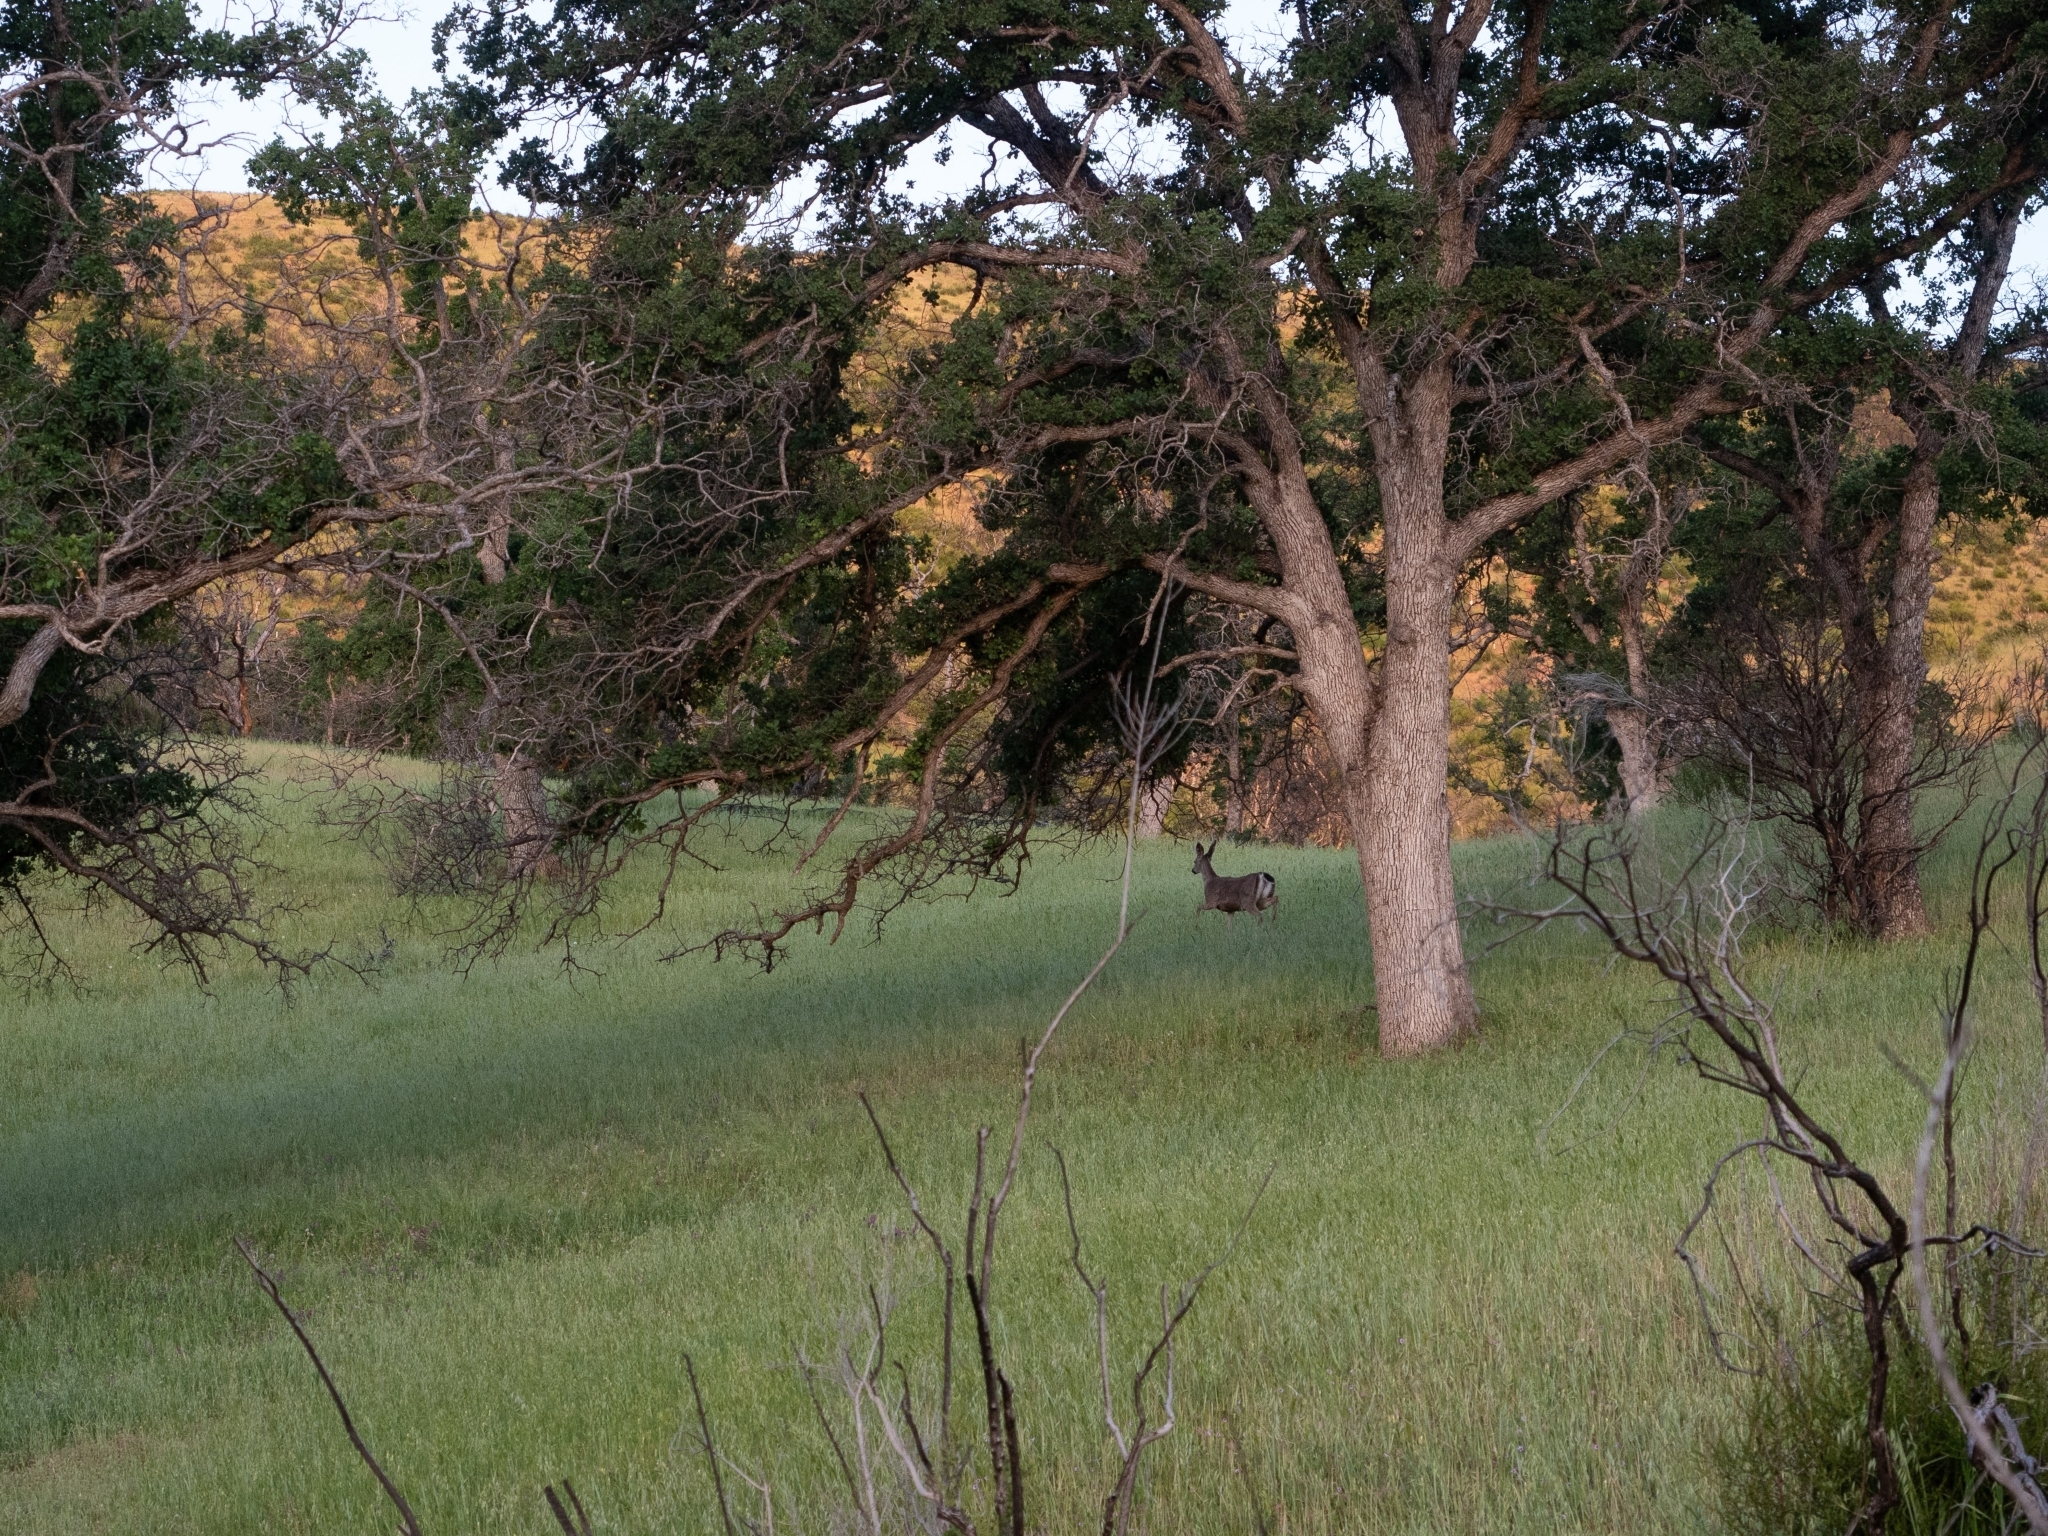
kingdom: Animalia
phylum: Chordata
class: Mammalia
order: Artiodactyla
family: Cervidae
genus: Odocoileus
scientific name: Odocoileus hemionus
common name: Mule deer
